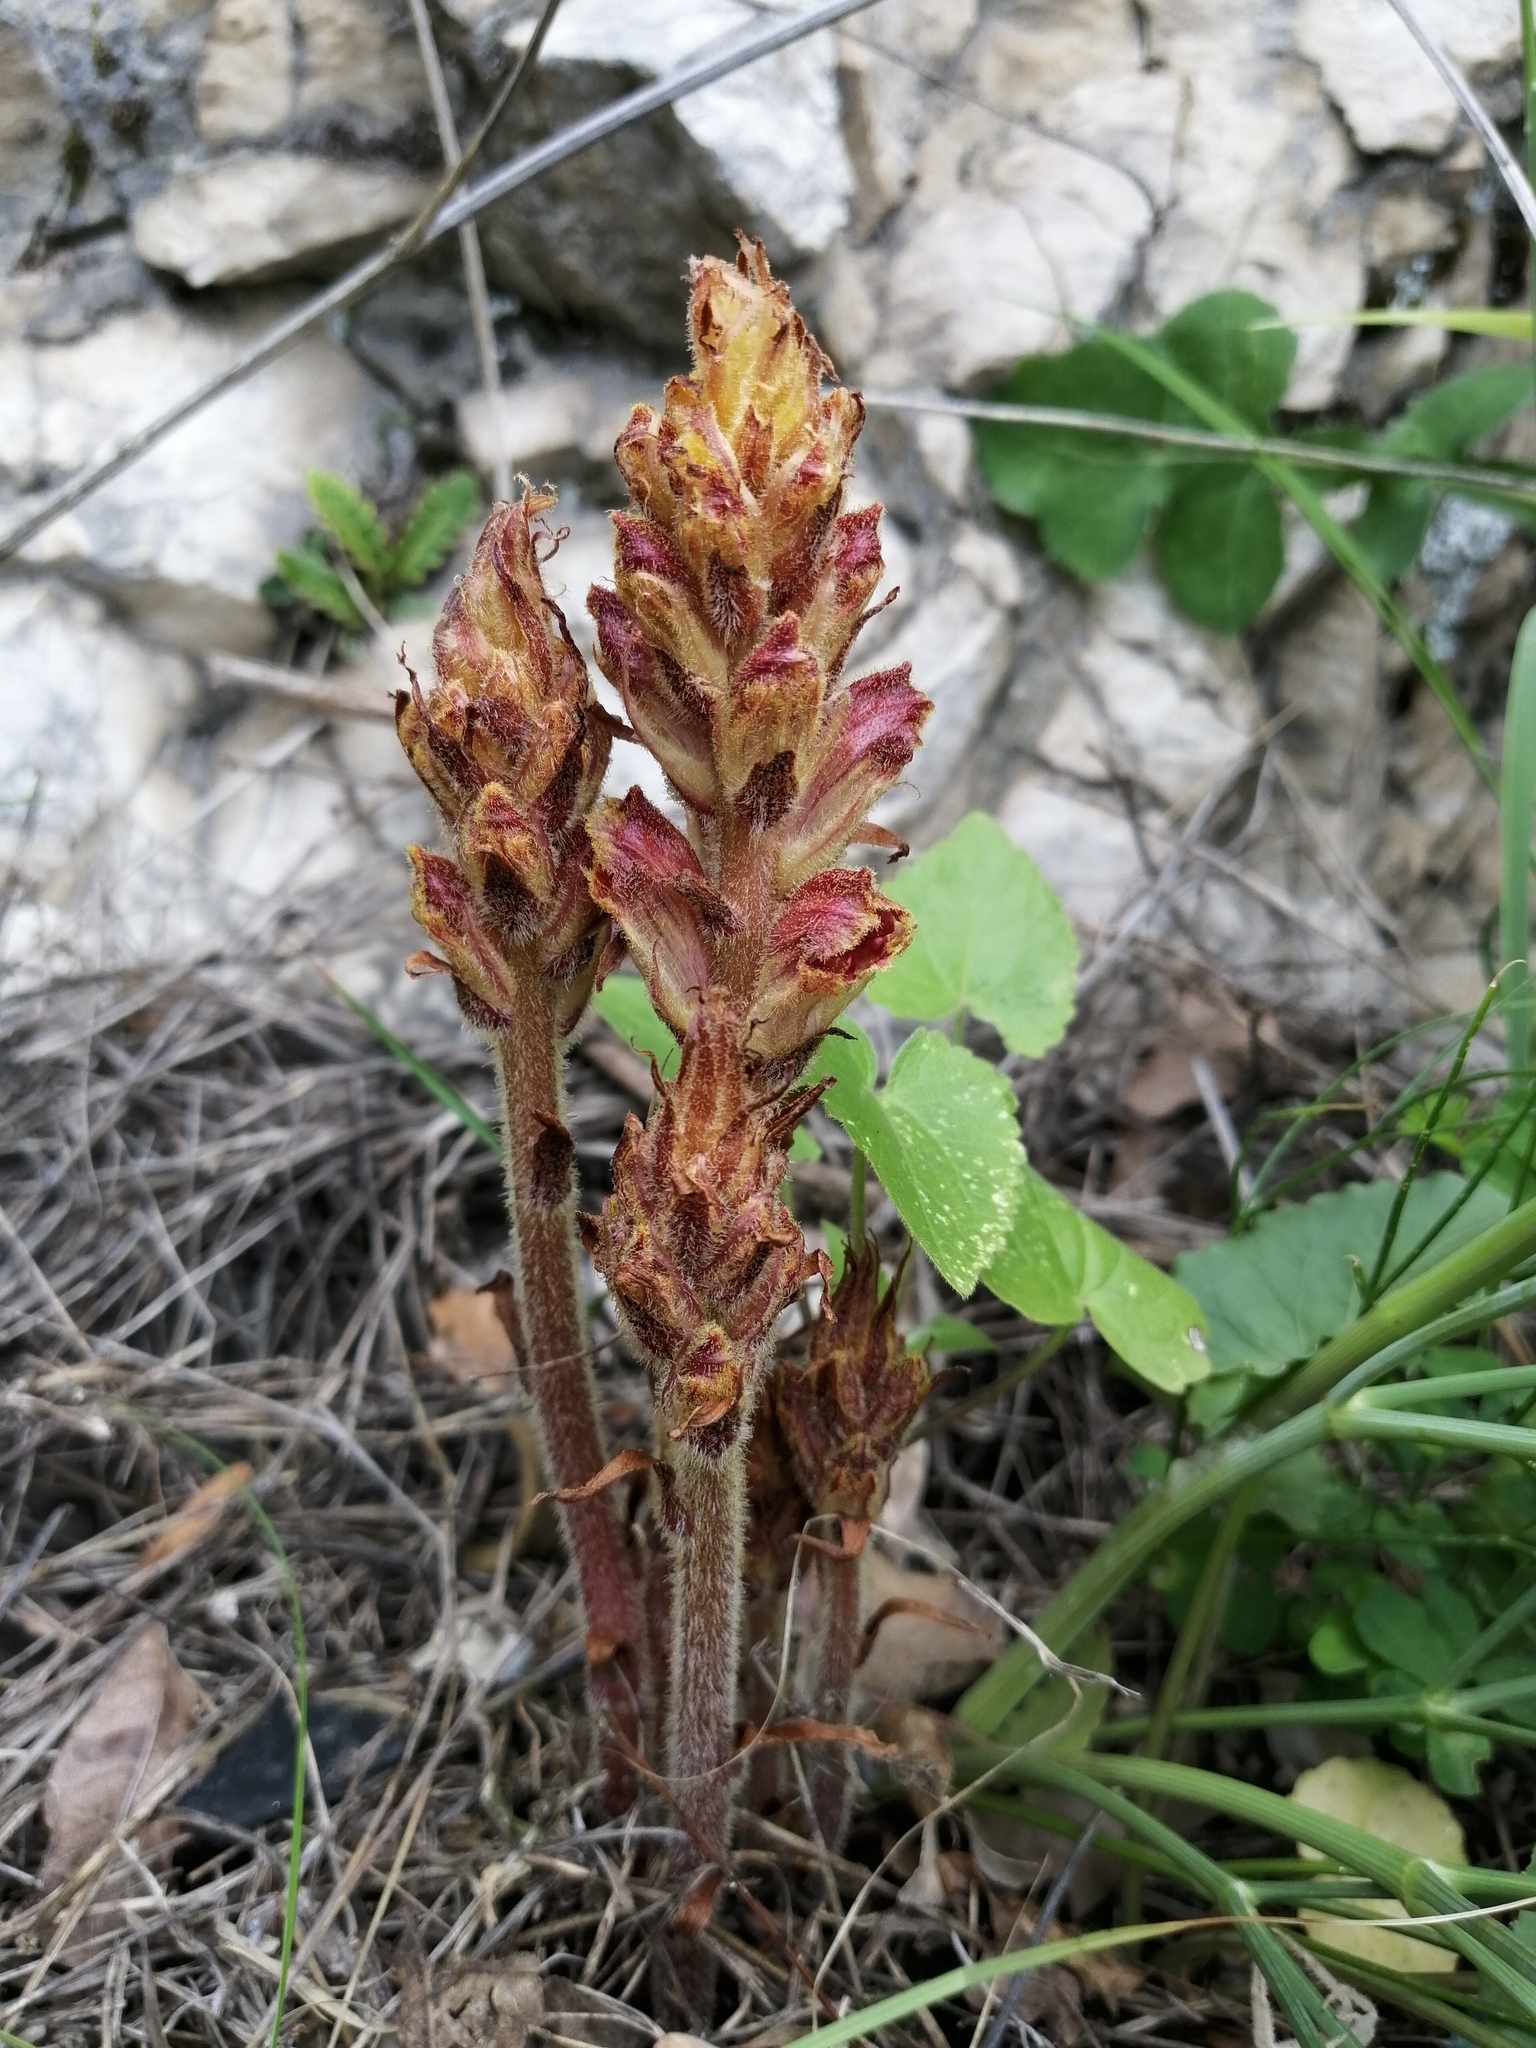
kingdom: Plantae
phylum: Tracheophyta
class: Magnoliopsida
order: Lamiales
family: Orobanchaceae
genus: Orobanche
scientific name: Orobanche gracilis
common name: Slender broomrape
